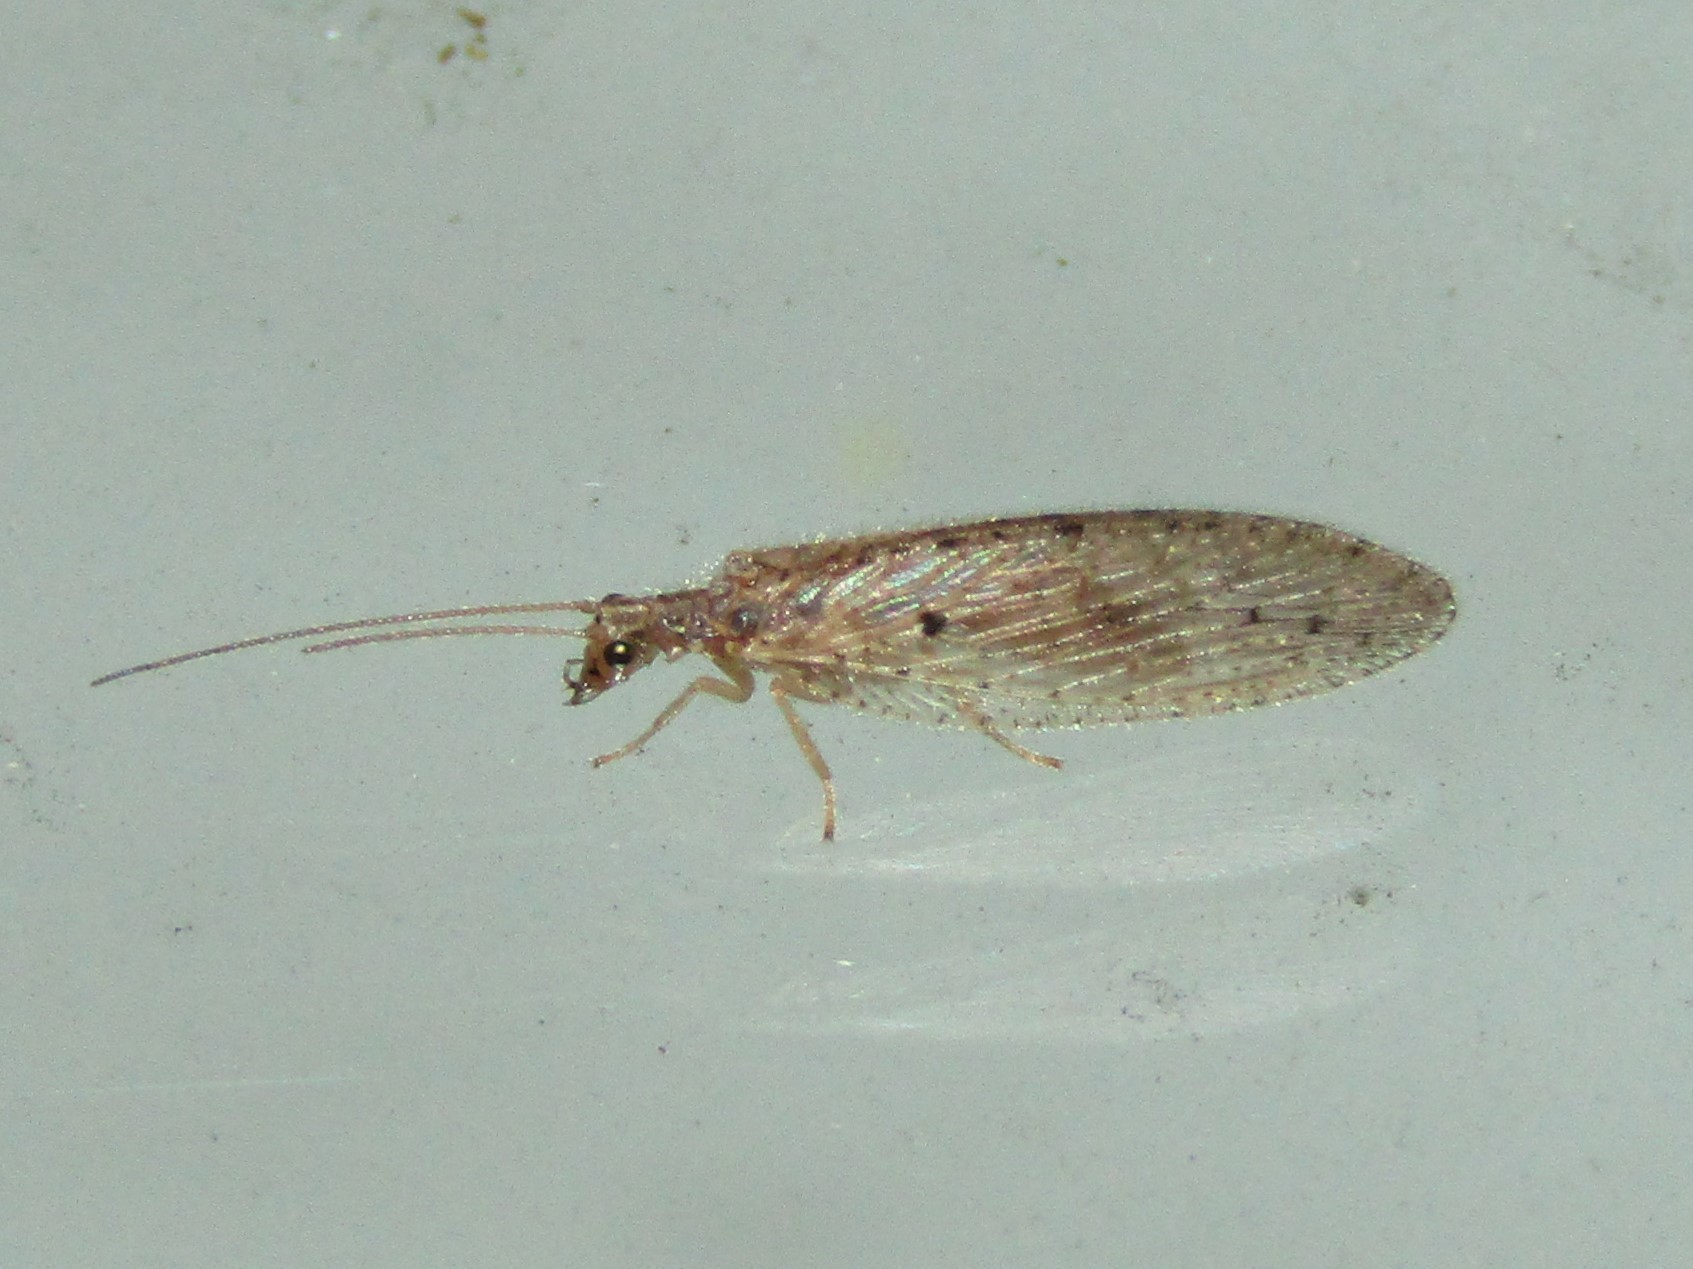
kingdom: Animalia
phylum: Arthropoda
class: Insecta
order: Neuroptera
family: Hemerobiidae
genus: Micromus
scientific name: Micromus subanticus
